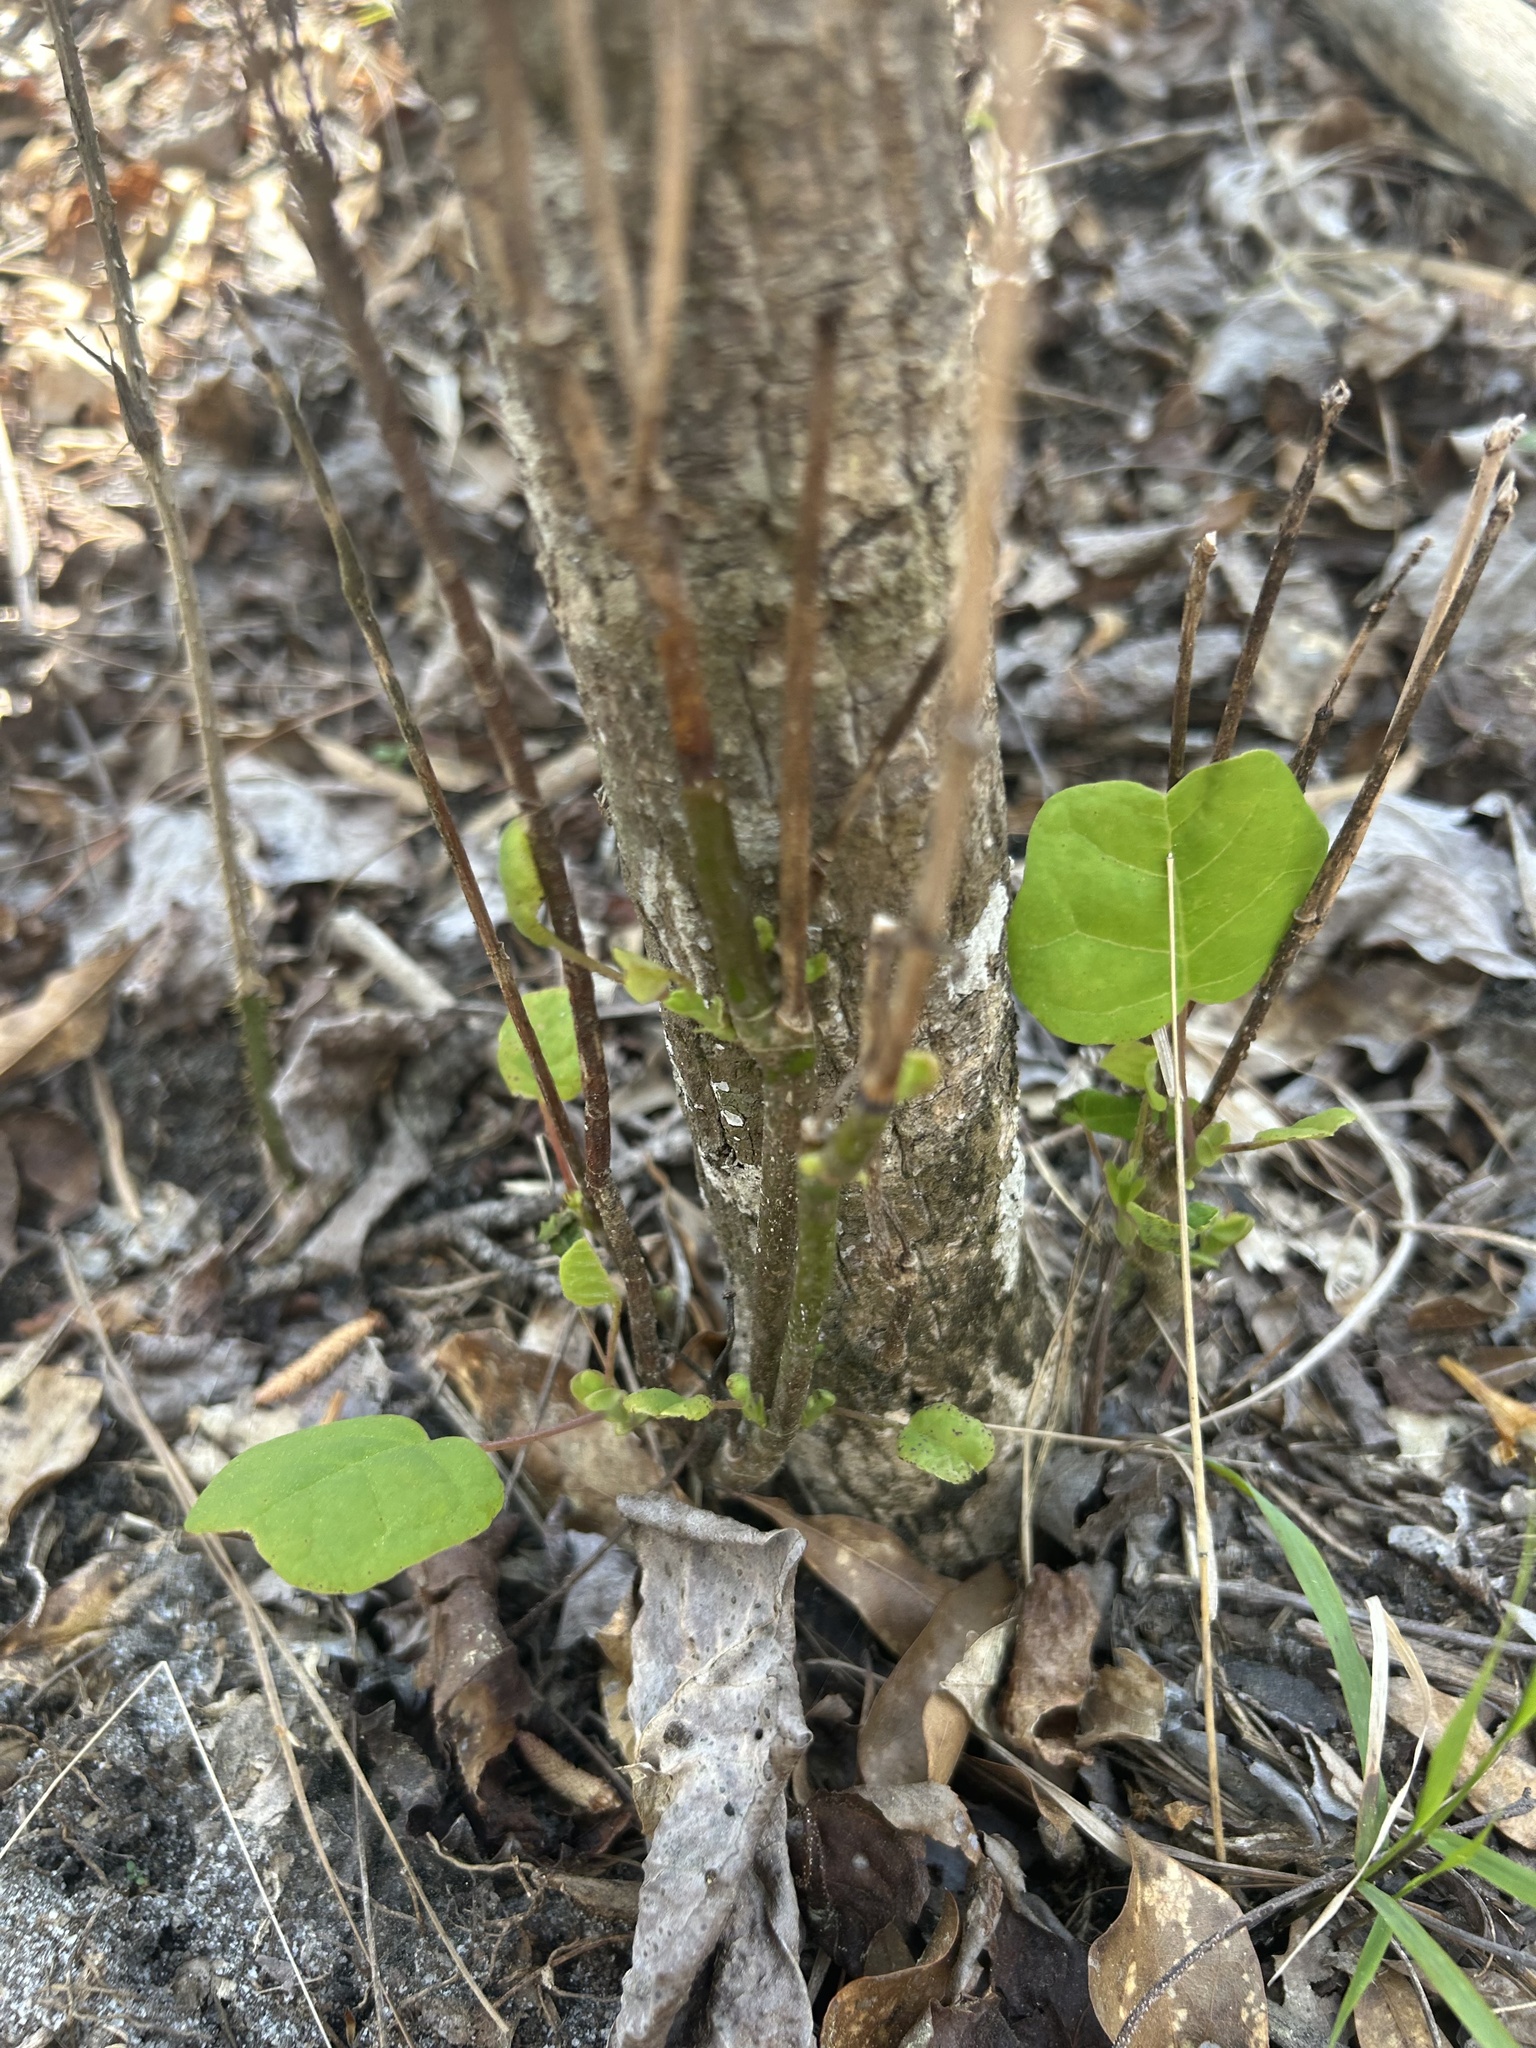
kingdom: Plantae
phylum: Tracheophyta
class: Magnoliopsida
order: Magnoliales
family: Magnoliaceae
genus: Liriodendron
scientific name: Liriodendron tulipifera
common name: Tulip tree
